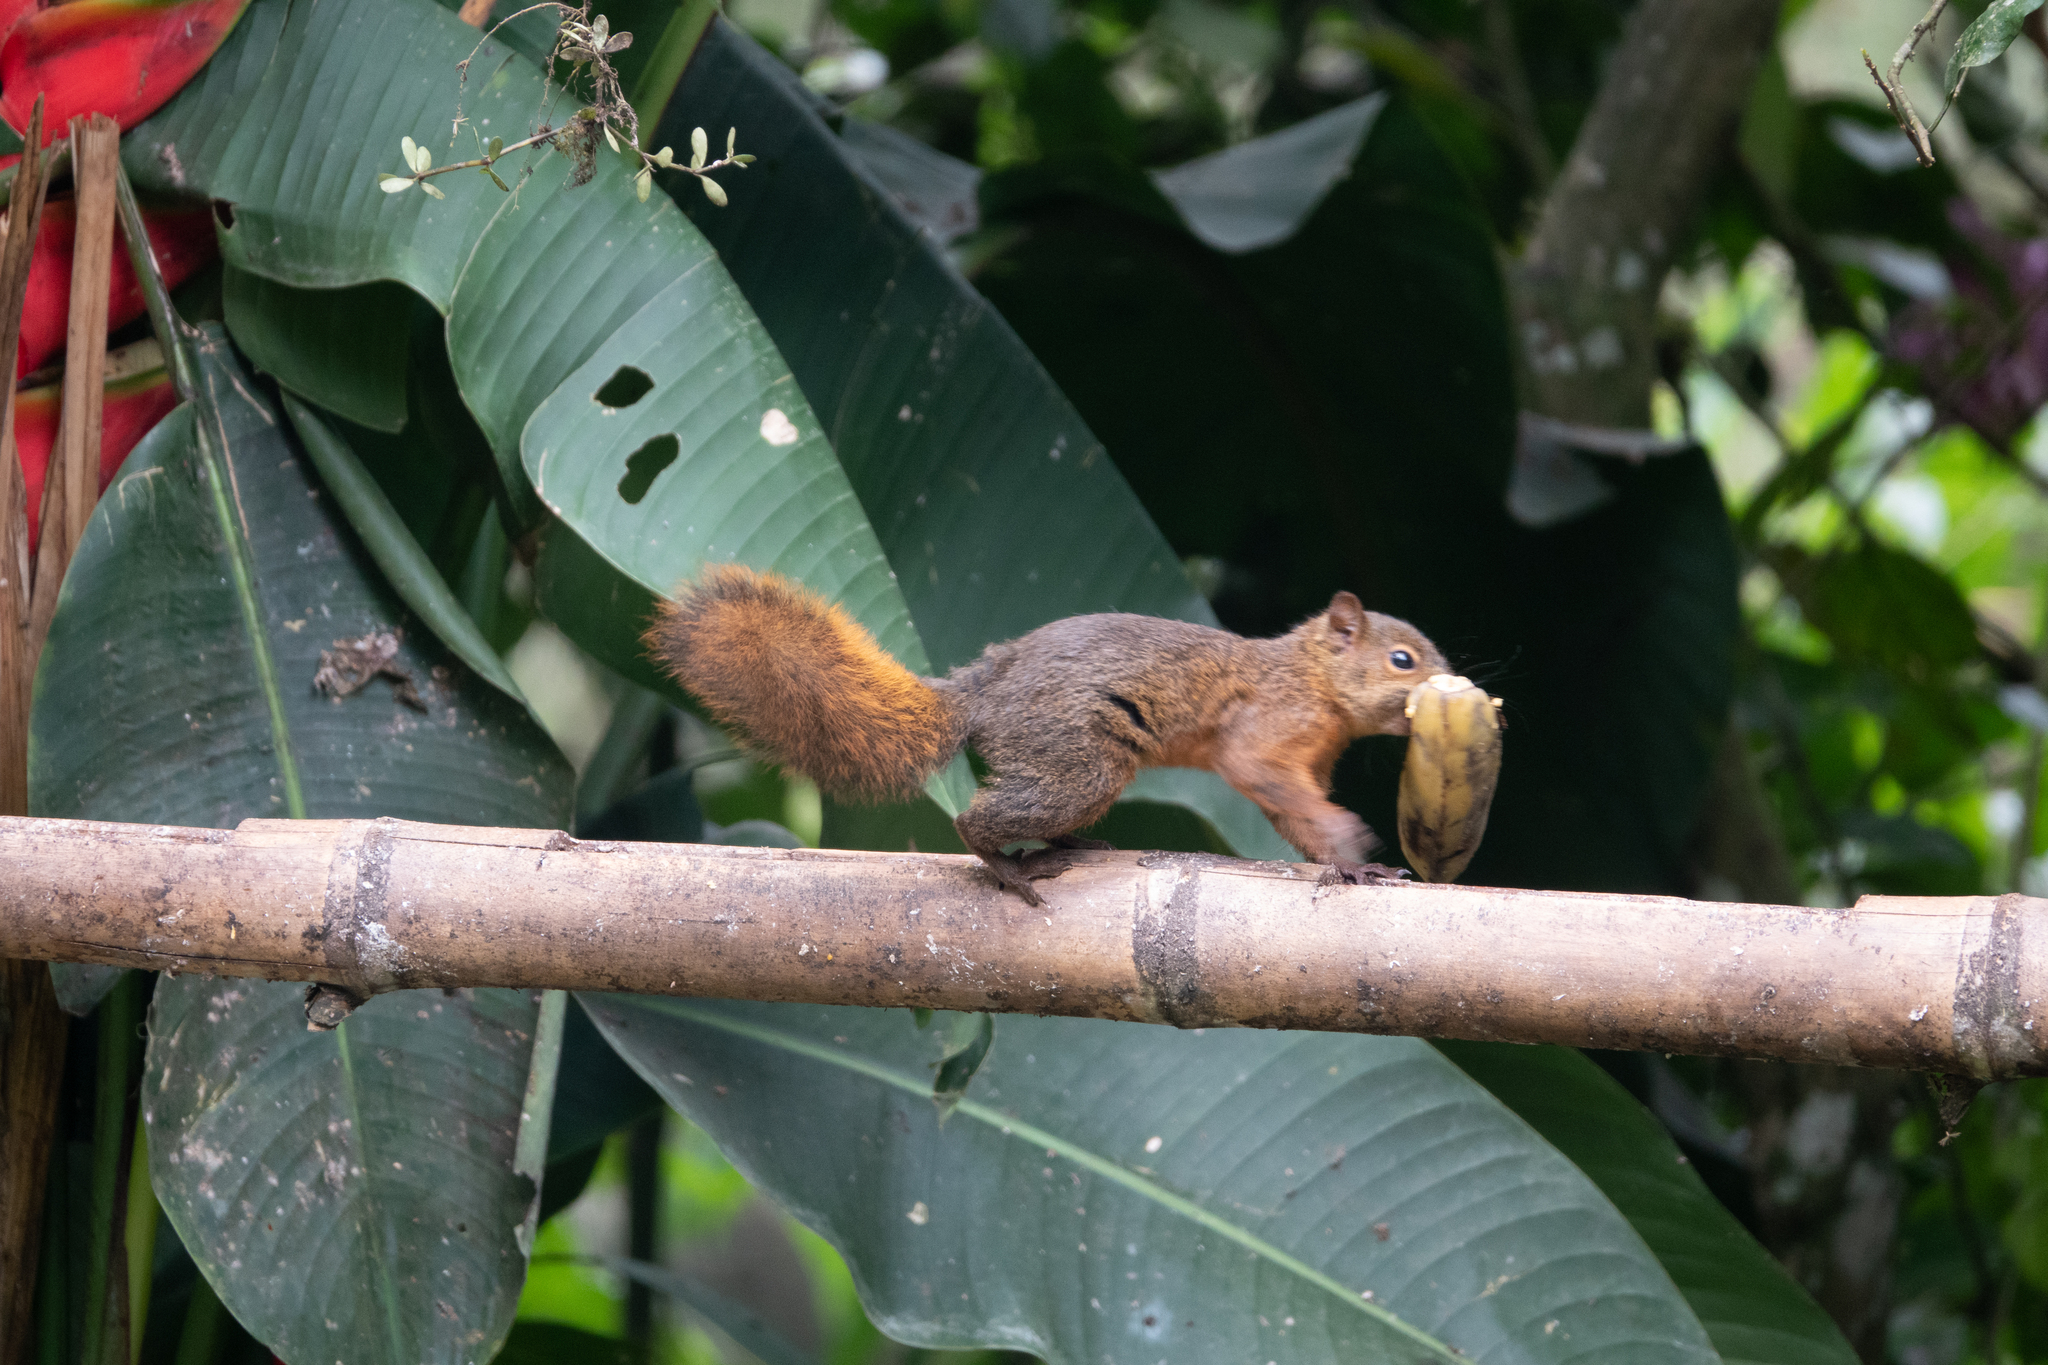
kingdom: Animalia
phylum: Chordata
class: Mammalia
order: Rodentia
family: Sciuridae
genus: Sciurus
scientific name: Sciurus granatensis
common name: Red-tailed squirrel
